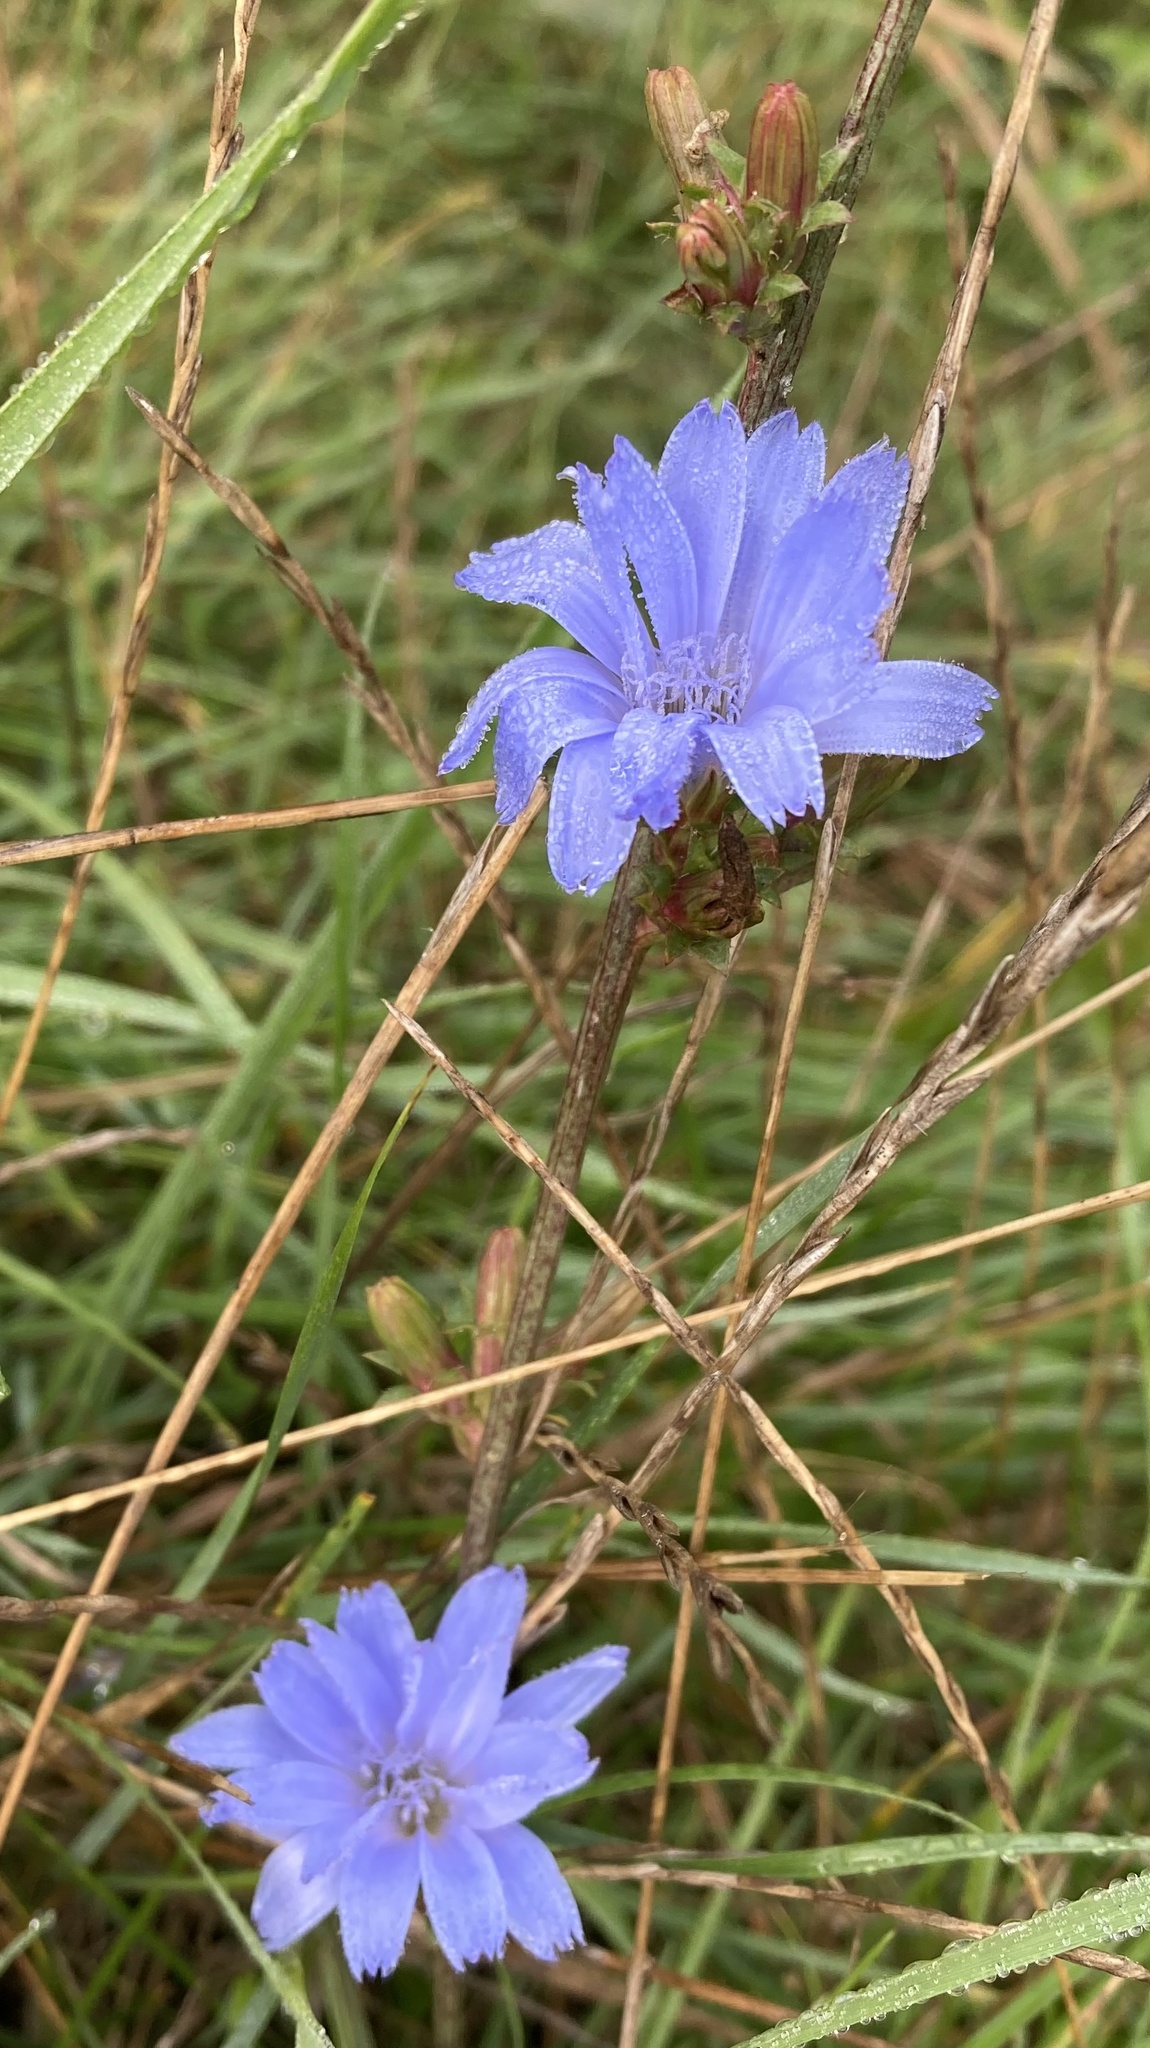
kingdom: Plantae
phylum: Tracheophyta
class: Magnoliopsida
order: Asterales
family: Asteraceae
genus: Cichorium
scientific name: Cichorium intybus
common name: Chicory
